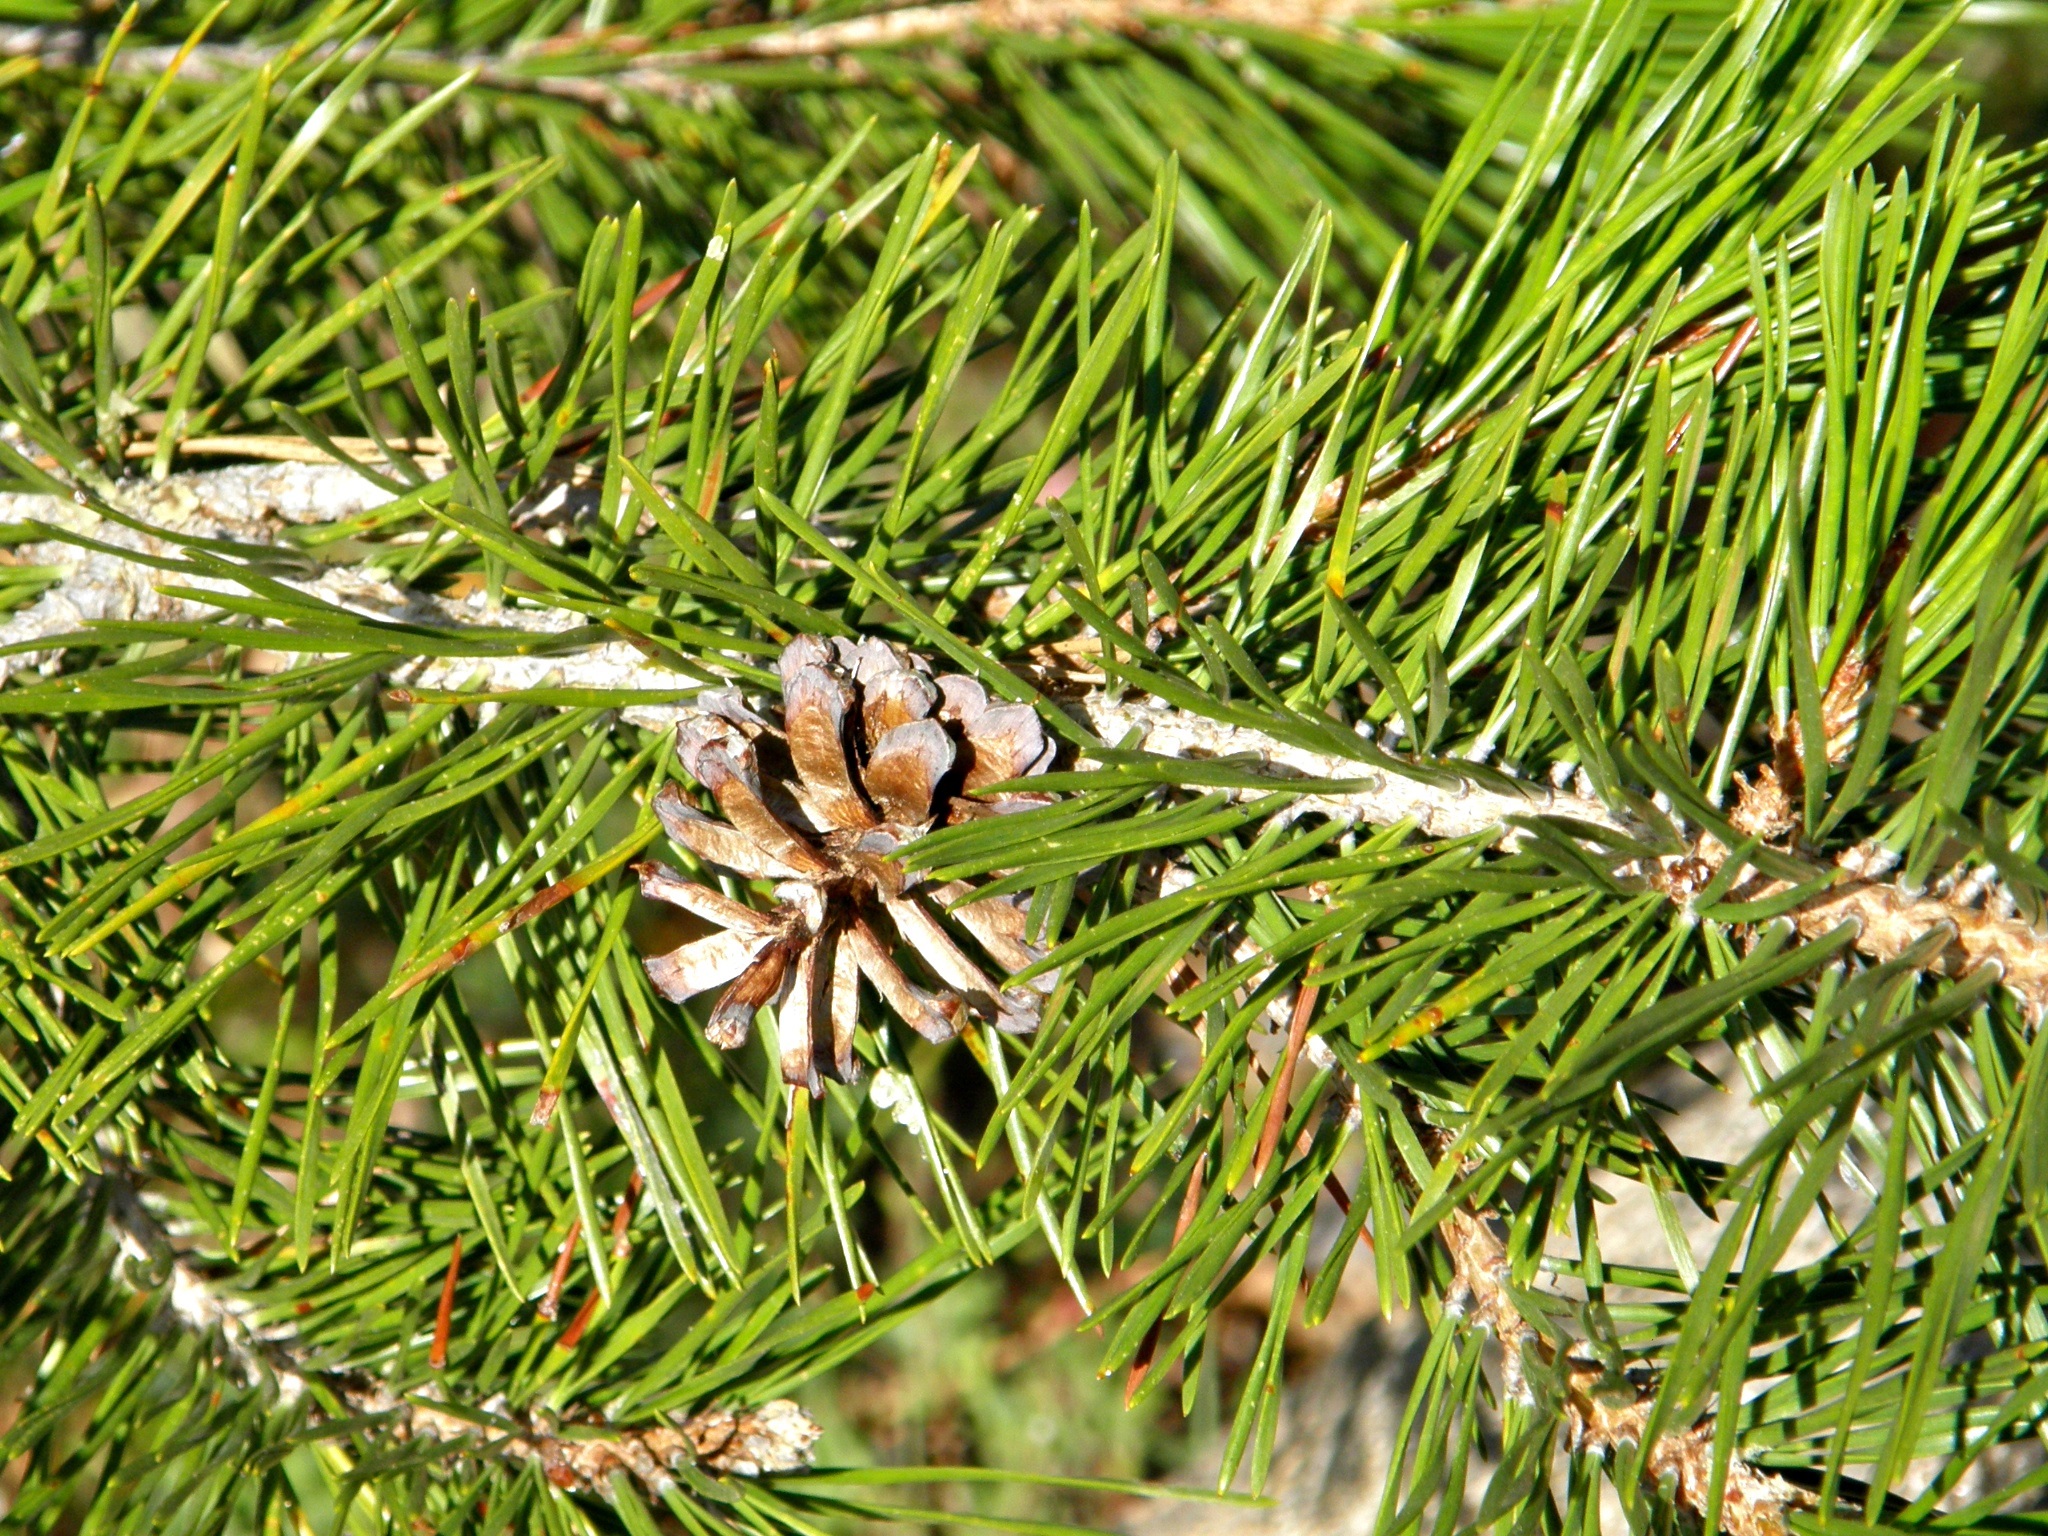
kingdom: Plantae
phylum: Tracheophyta
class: Pinopsida
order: Pinales
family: Pinaceae
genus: Pinus
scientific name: Pinus contorta
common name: Lodgepole pine
